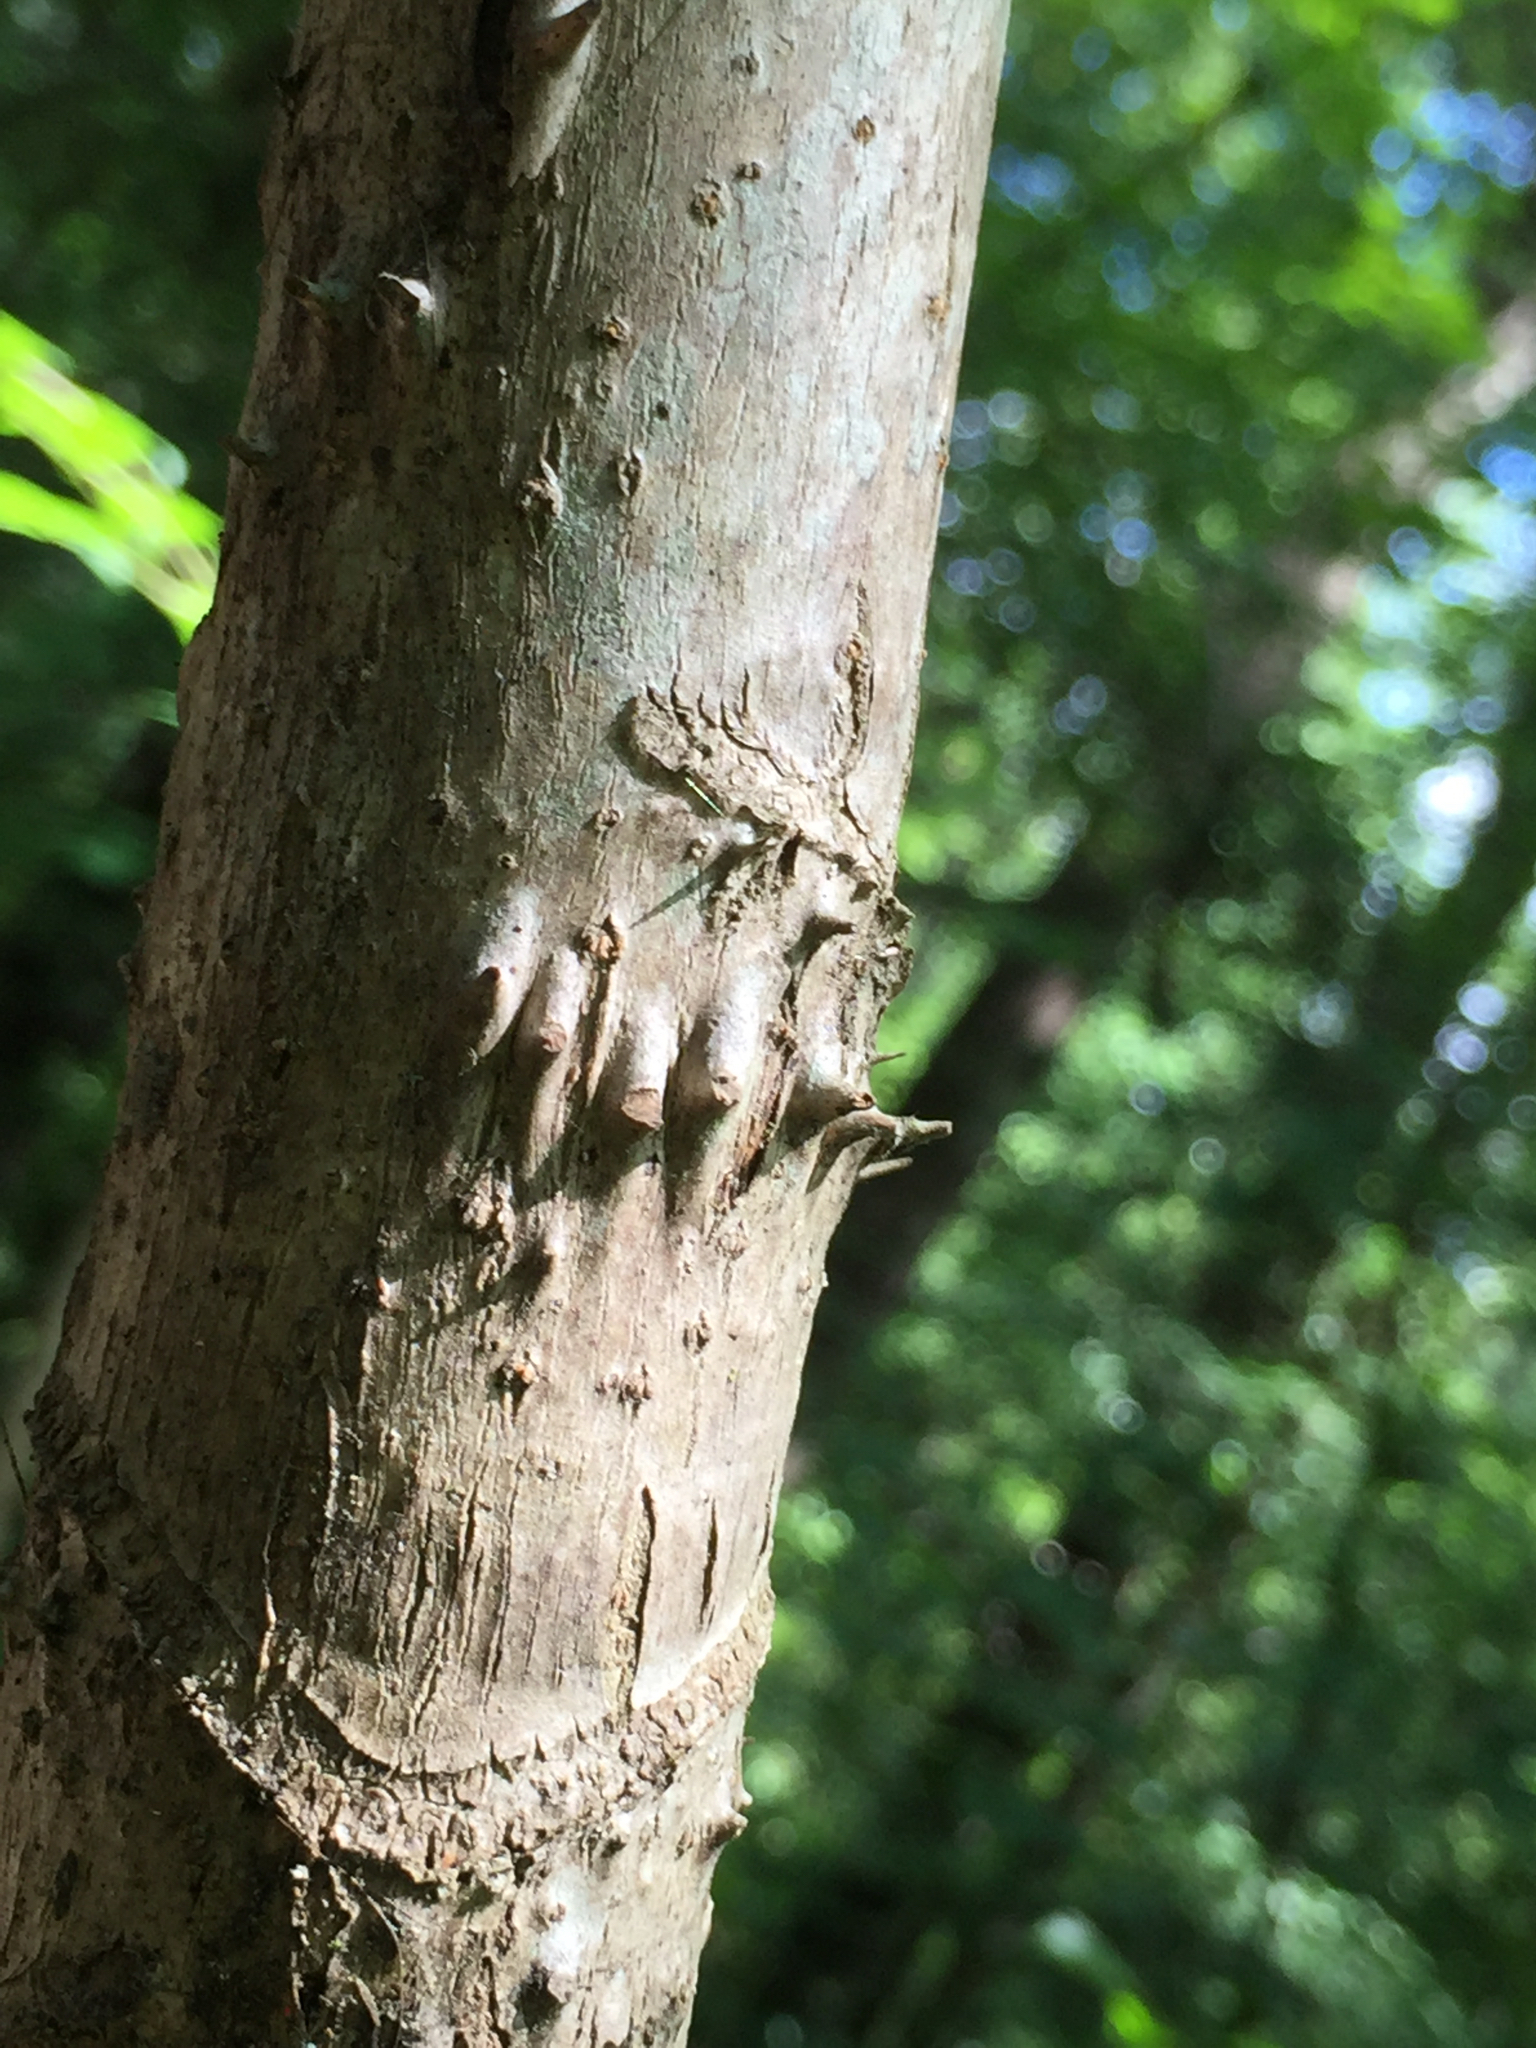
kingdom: Plantae
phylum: Tracheophyta
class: Magnoliopsida
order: Apiales
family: Araliaceae
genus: Aralia
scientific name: Aralia spinosa
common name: Hercules'-club
